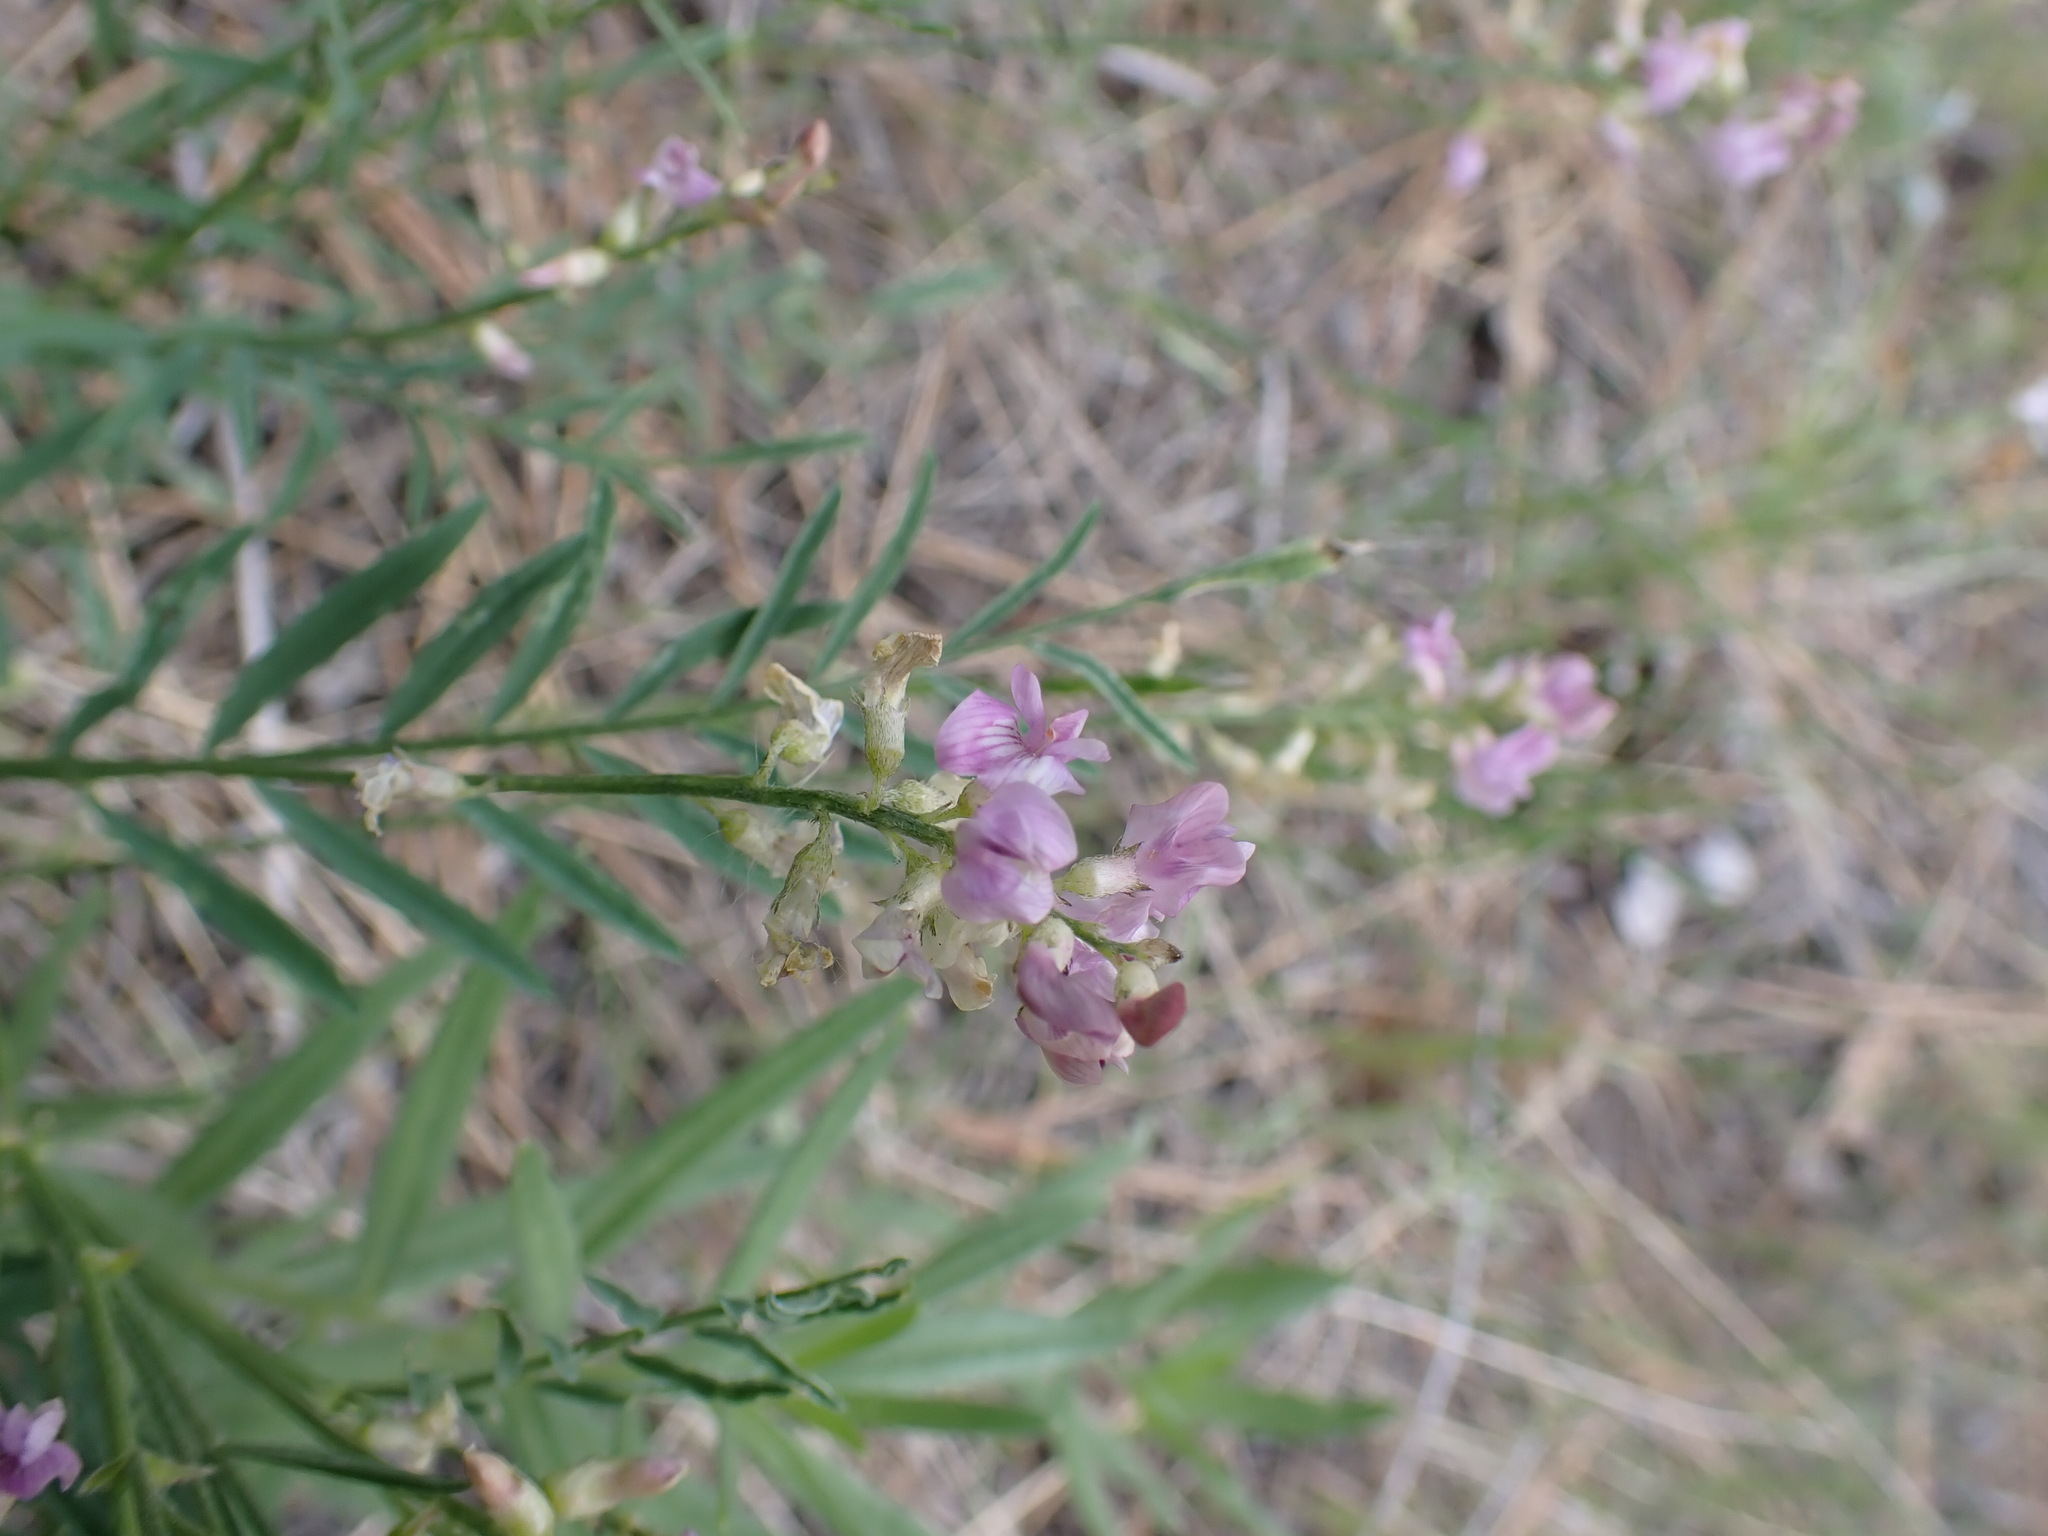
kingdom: Plantae
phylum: Tracheophyta
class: Magnoliopsida
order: Fabales
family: Fabaceae
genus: Astragalus
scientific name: Astragalus miser
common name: Timber milkvetch
